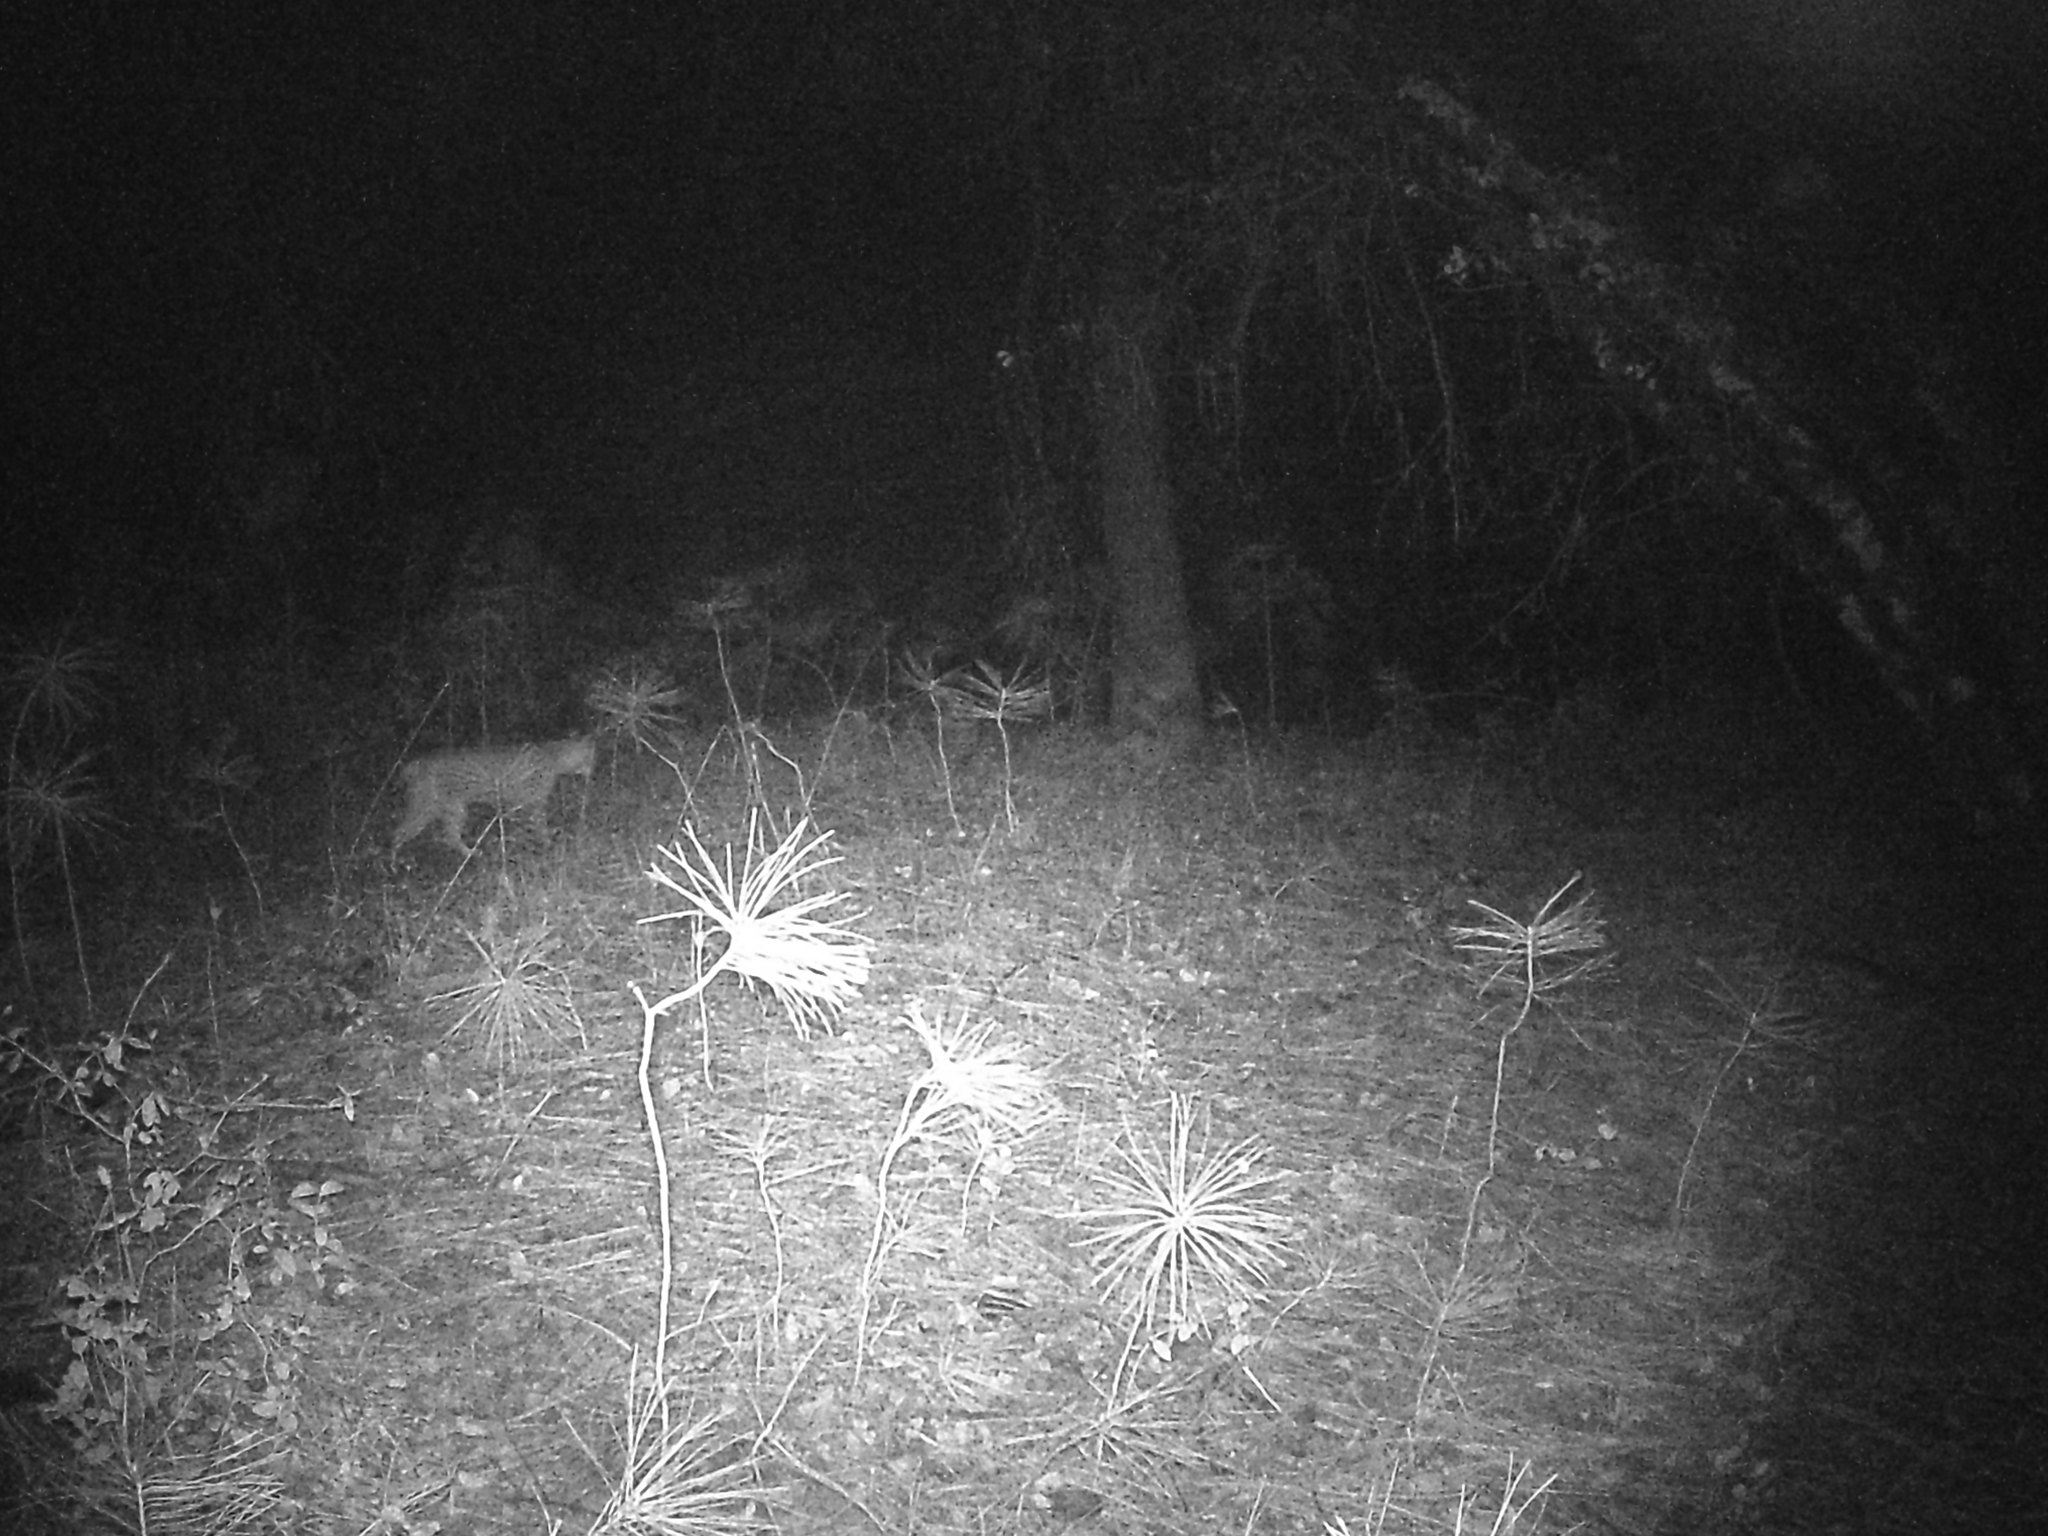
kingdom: Animalia
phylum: Chordata
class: Mammalia
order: Carnivora
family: Felidae
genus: Lynx
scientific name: Lynx rufus
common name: Bobcat
